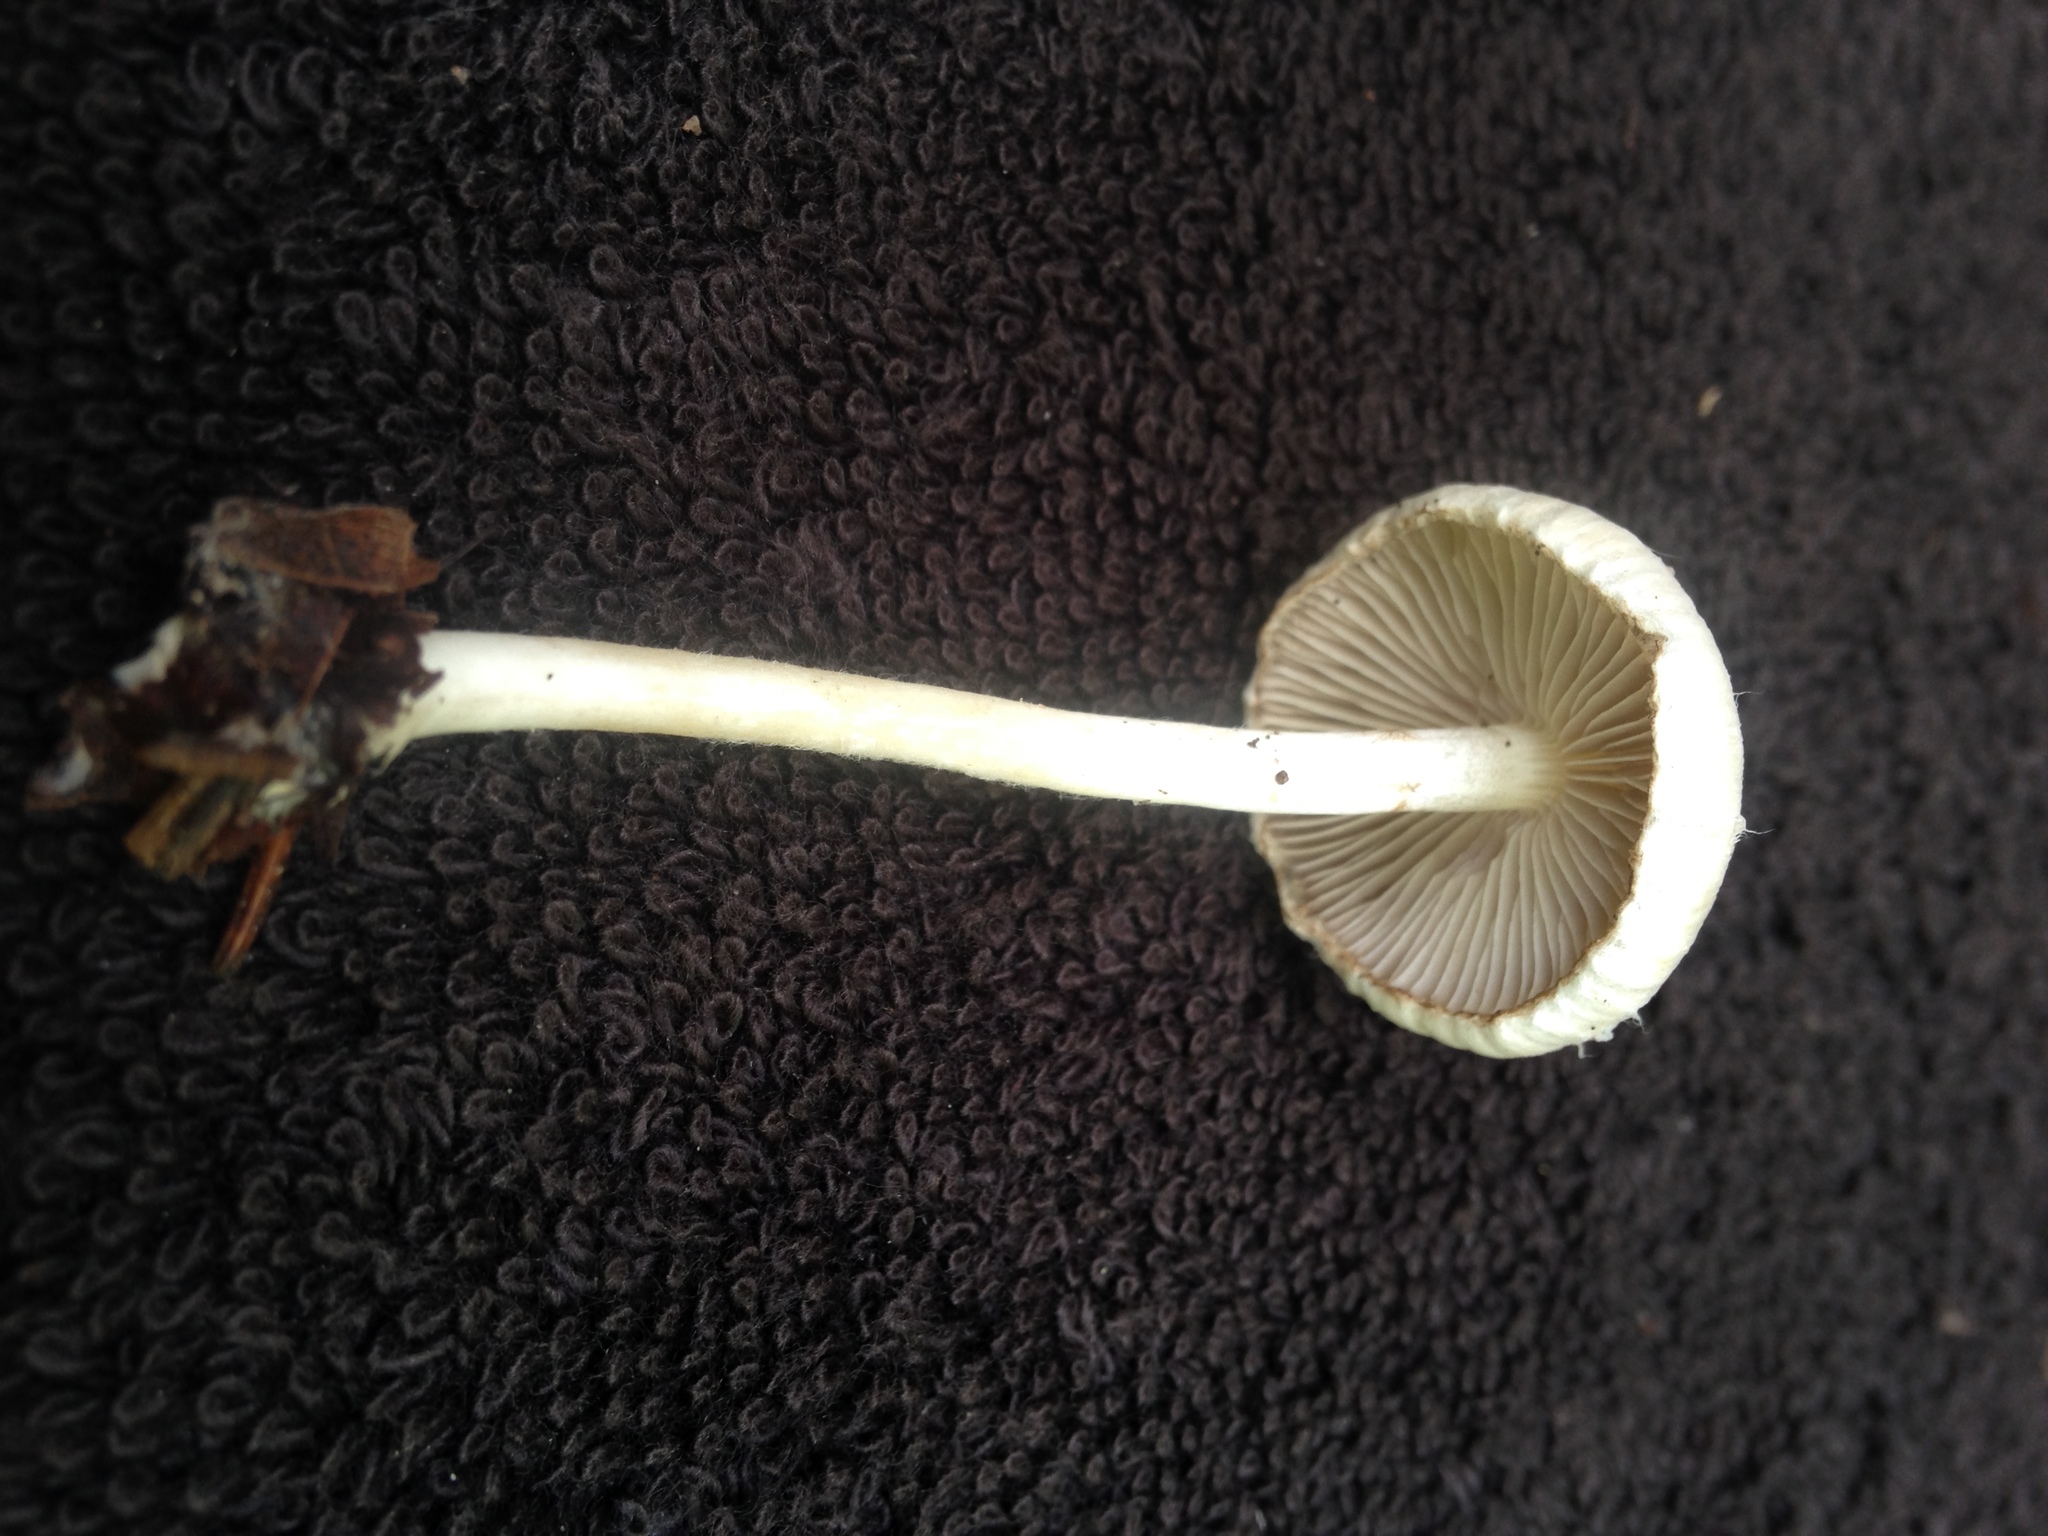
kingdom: Fungi
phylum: Basidiomycota
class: Agaricomycetes
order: Agaricales
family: Inocybaceae
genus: Inocybe
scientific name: Inocybe geophylla
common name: White fibrecap
